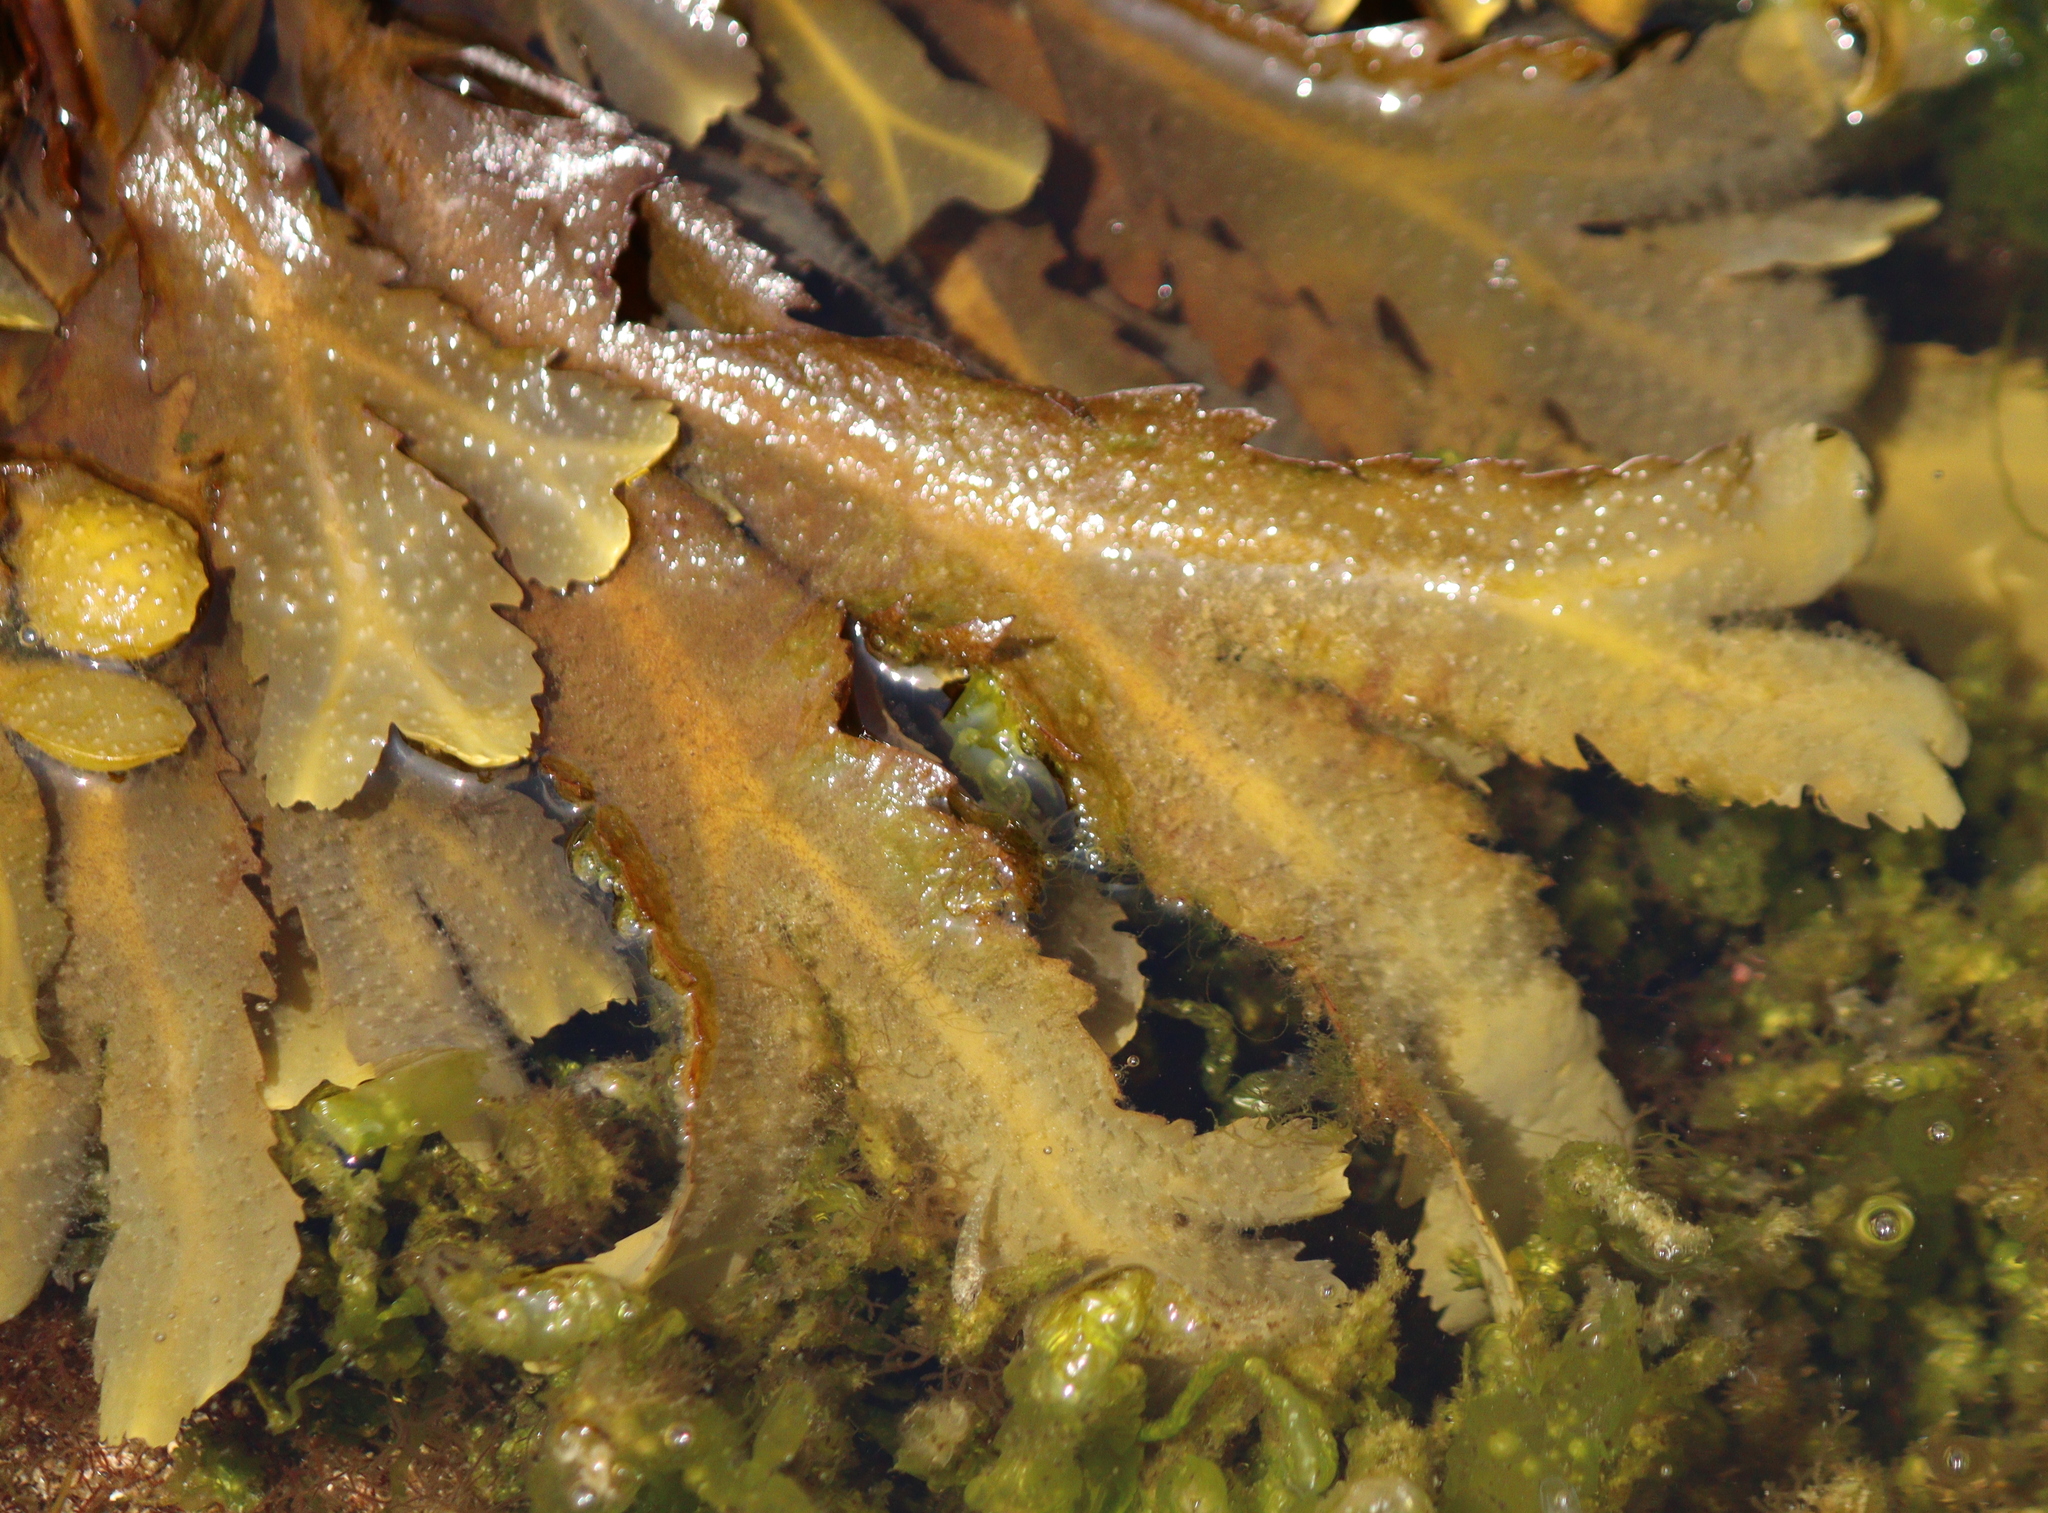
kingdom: Chromista
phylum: Ochrophyta
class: Phaeophyceae
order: Fucales
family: Fucaceae
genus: Fucus
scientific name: Fucus serratus
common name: Toothed wrack
